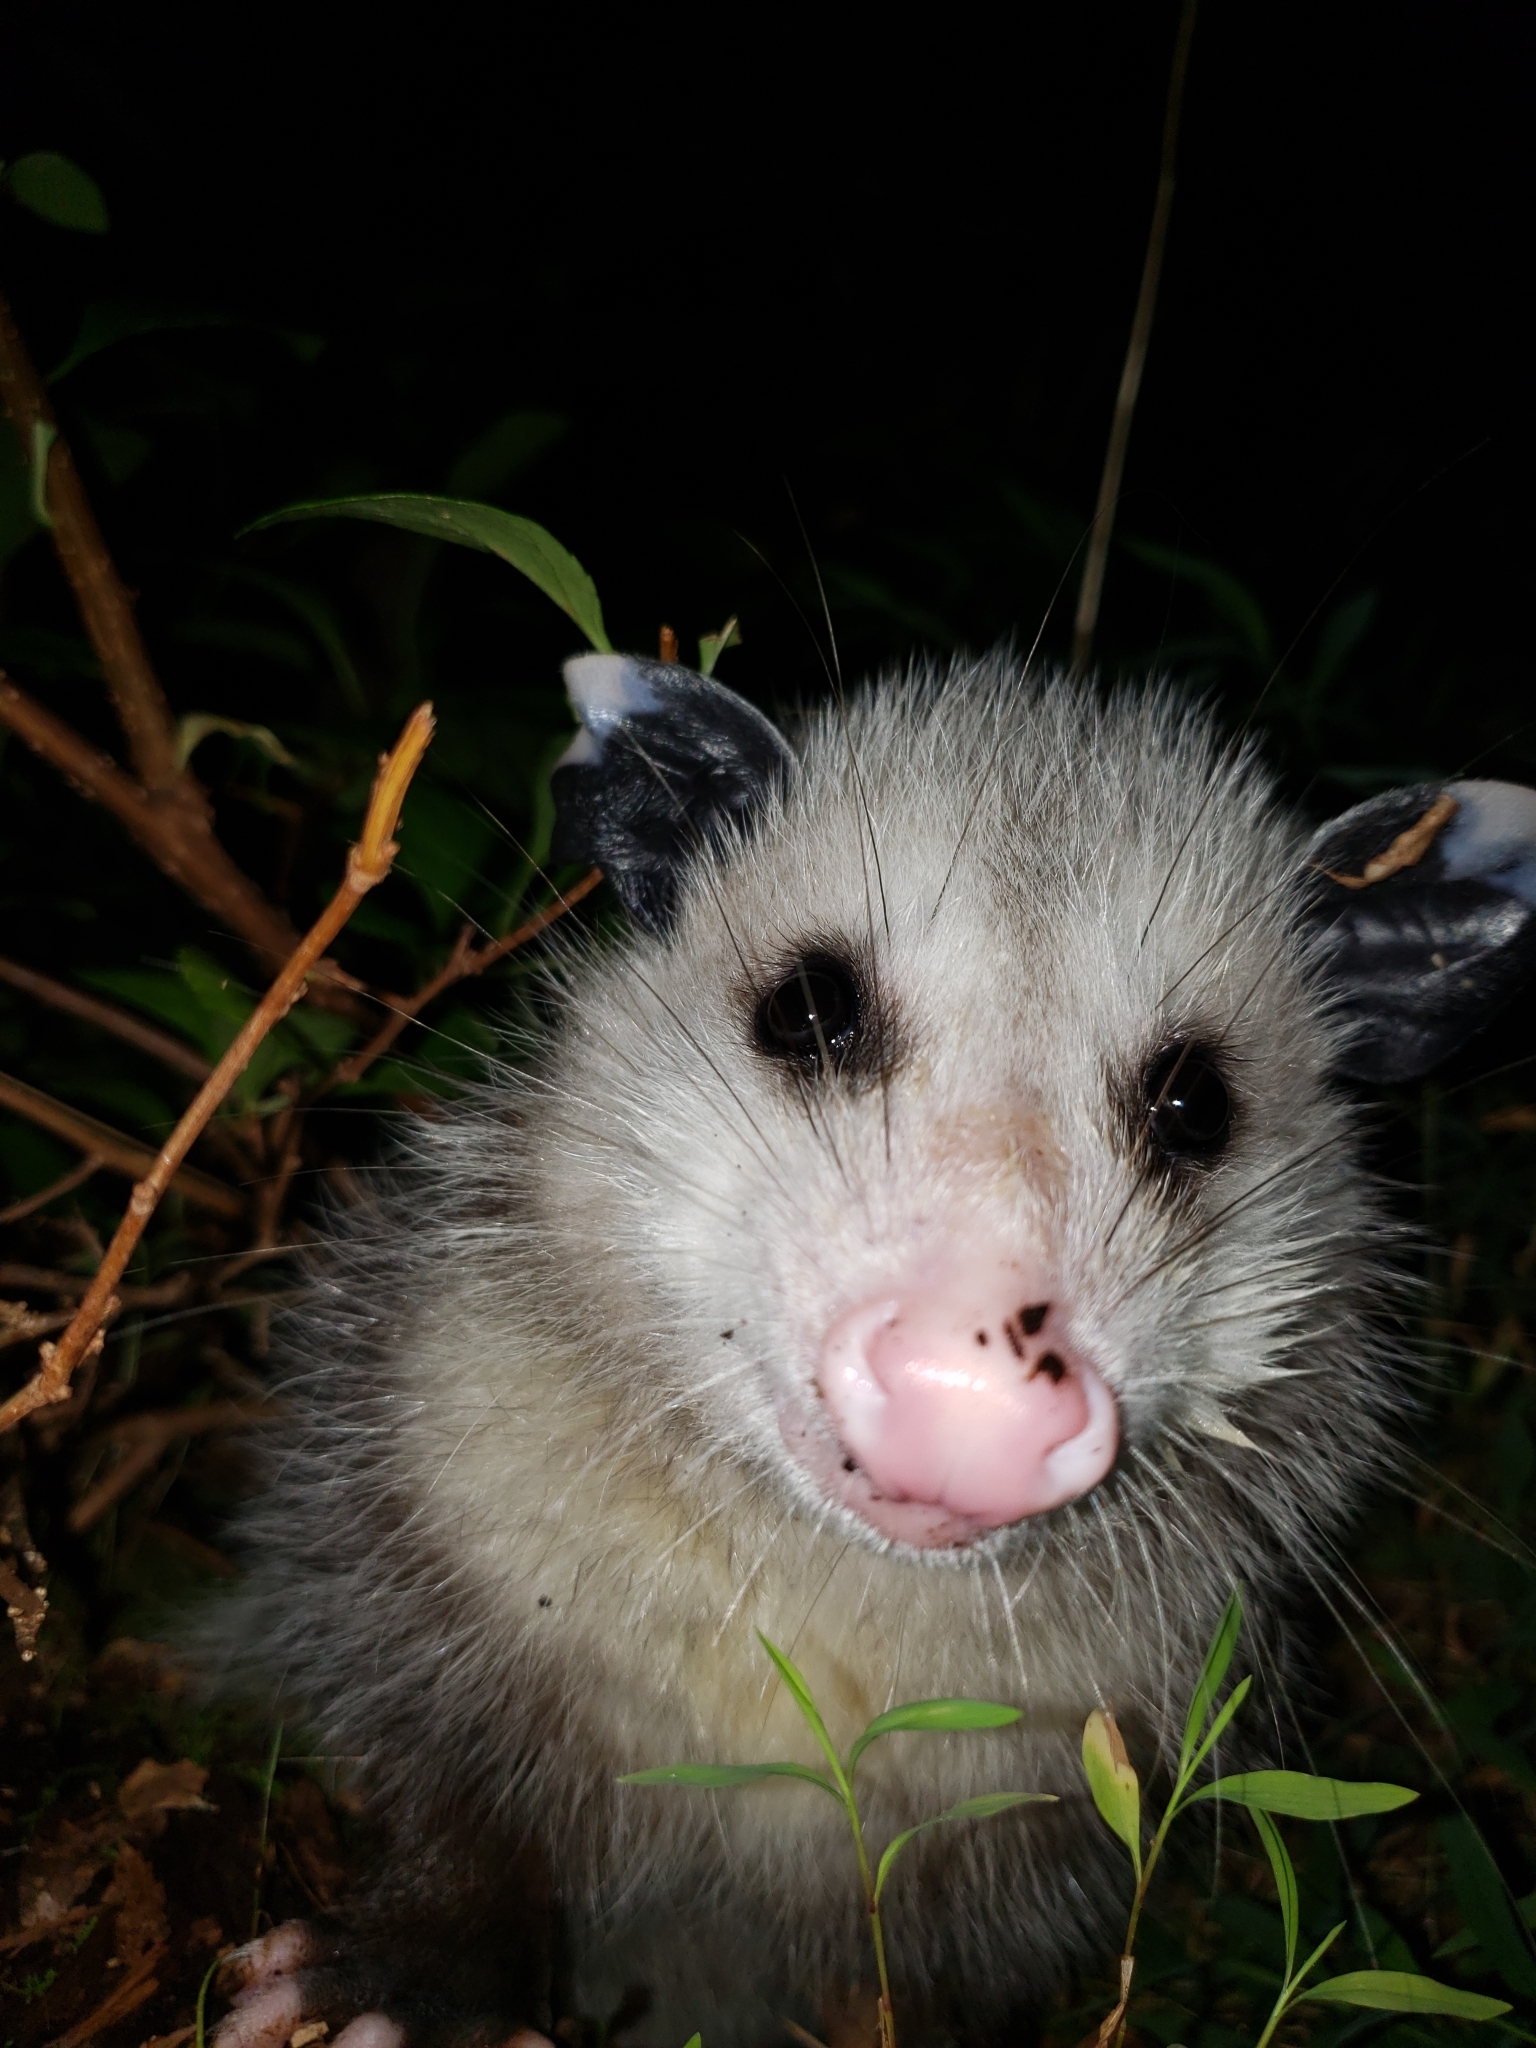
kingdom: Animalia
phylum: Chordata
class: Mammalia
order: Didelphimorphia
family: Didelphidae
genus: Didelphis
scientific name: Didelphis virginiana
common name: Virginia opossum
